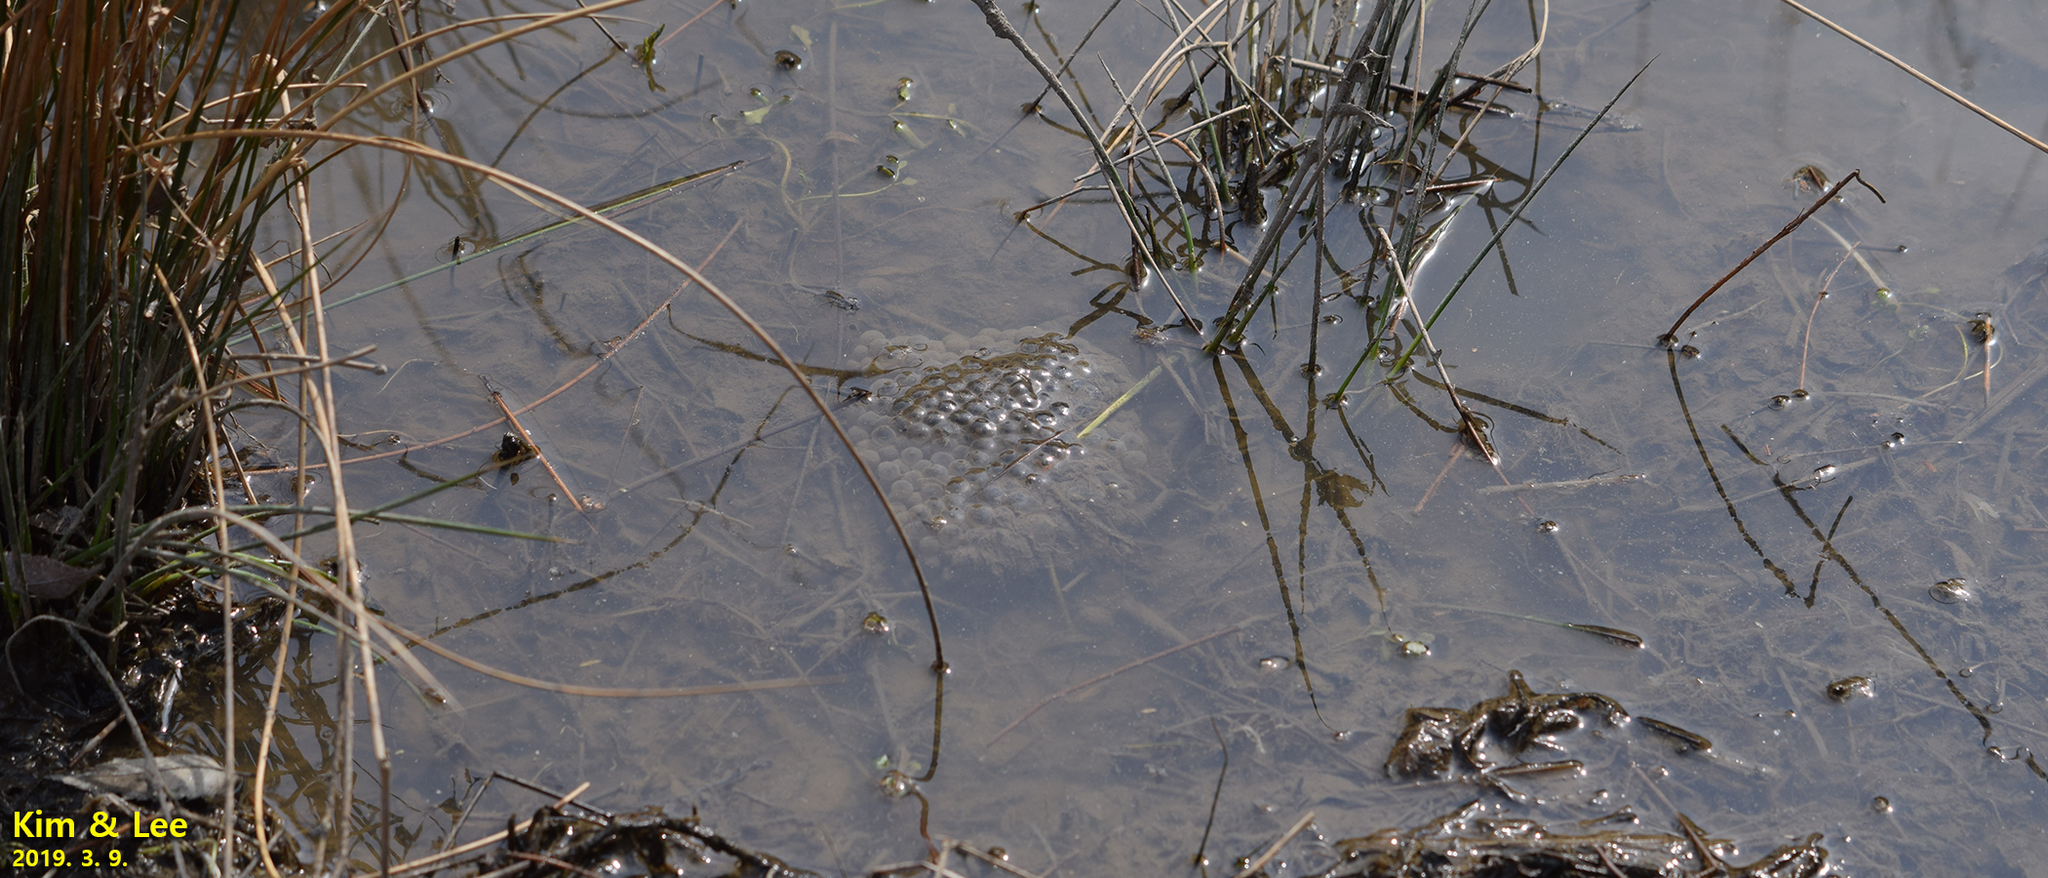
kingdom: Animalia
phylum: Chordata
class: Amphibia
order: Anura
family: Ranidae
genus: Rana
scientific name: Rana uenoi
